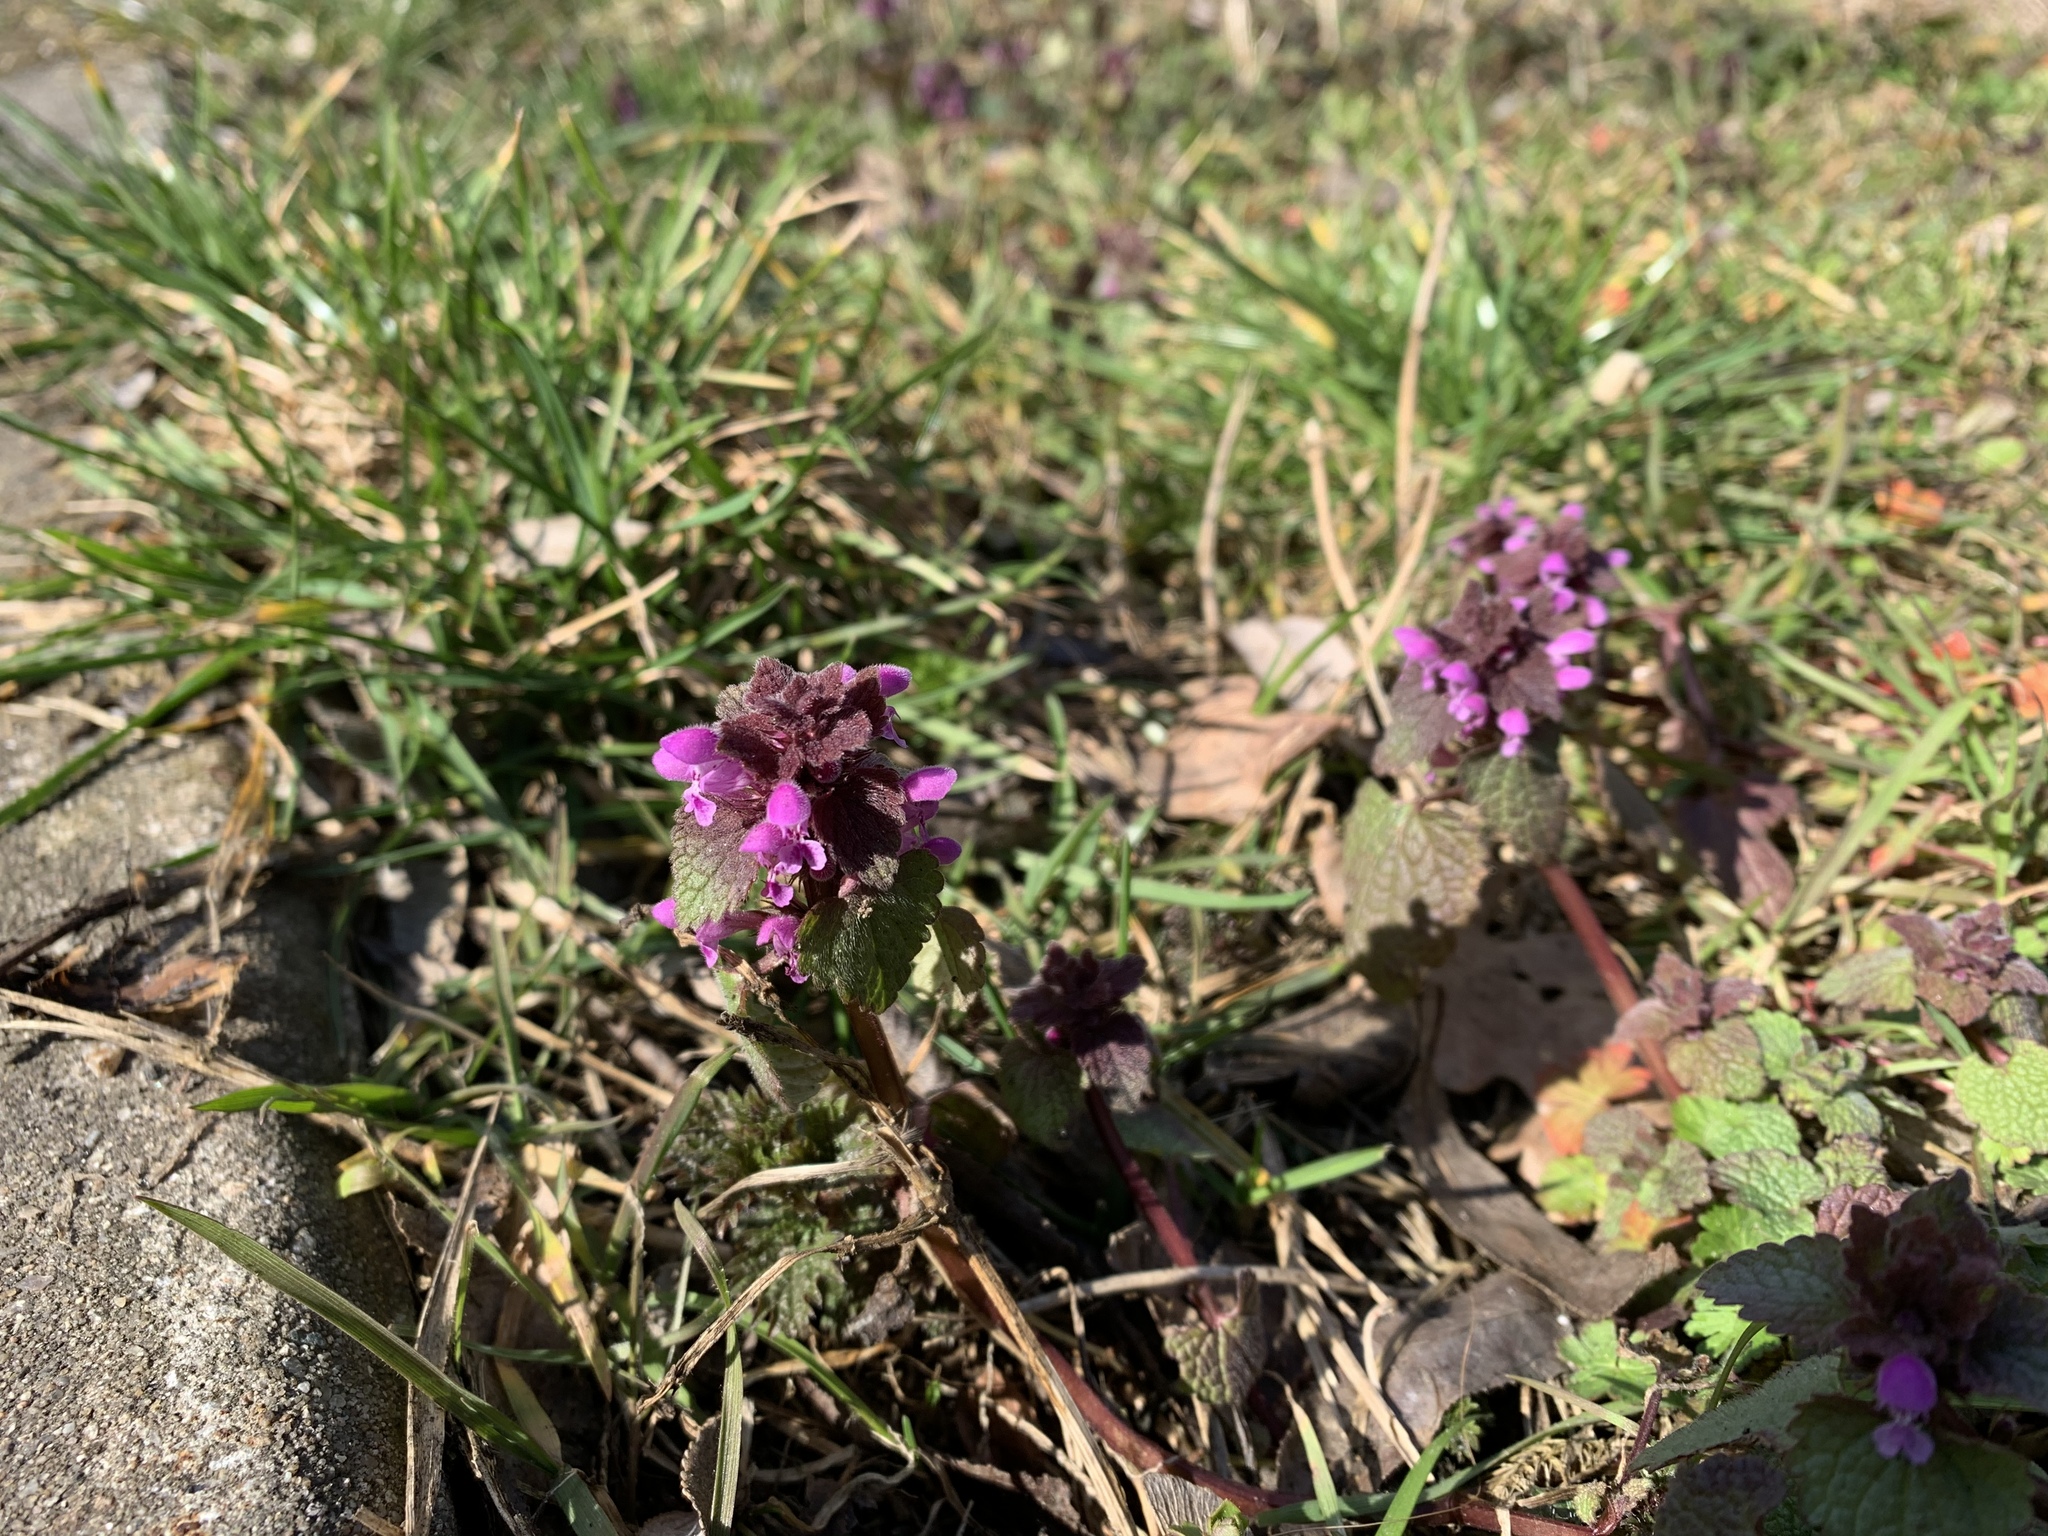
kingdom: Plantae
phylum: Tracheophyta
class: Magnoliopsida
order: Lamiales
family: Lamiaceae
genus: Lamium
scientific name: Lamium purpureum
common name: Red dead-nettle
